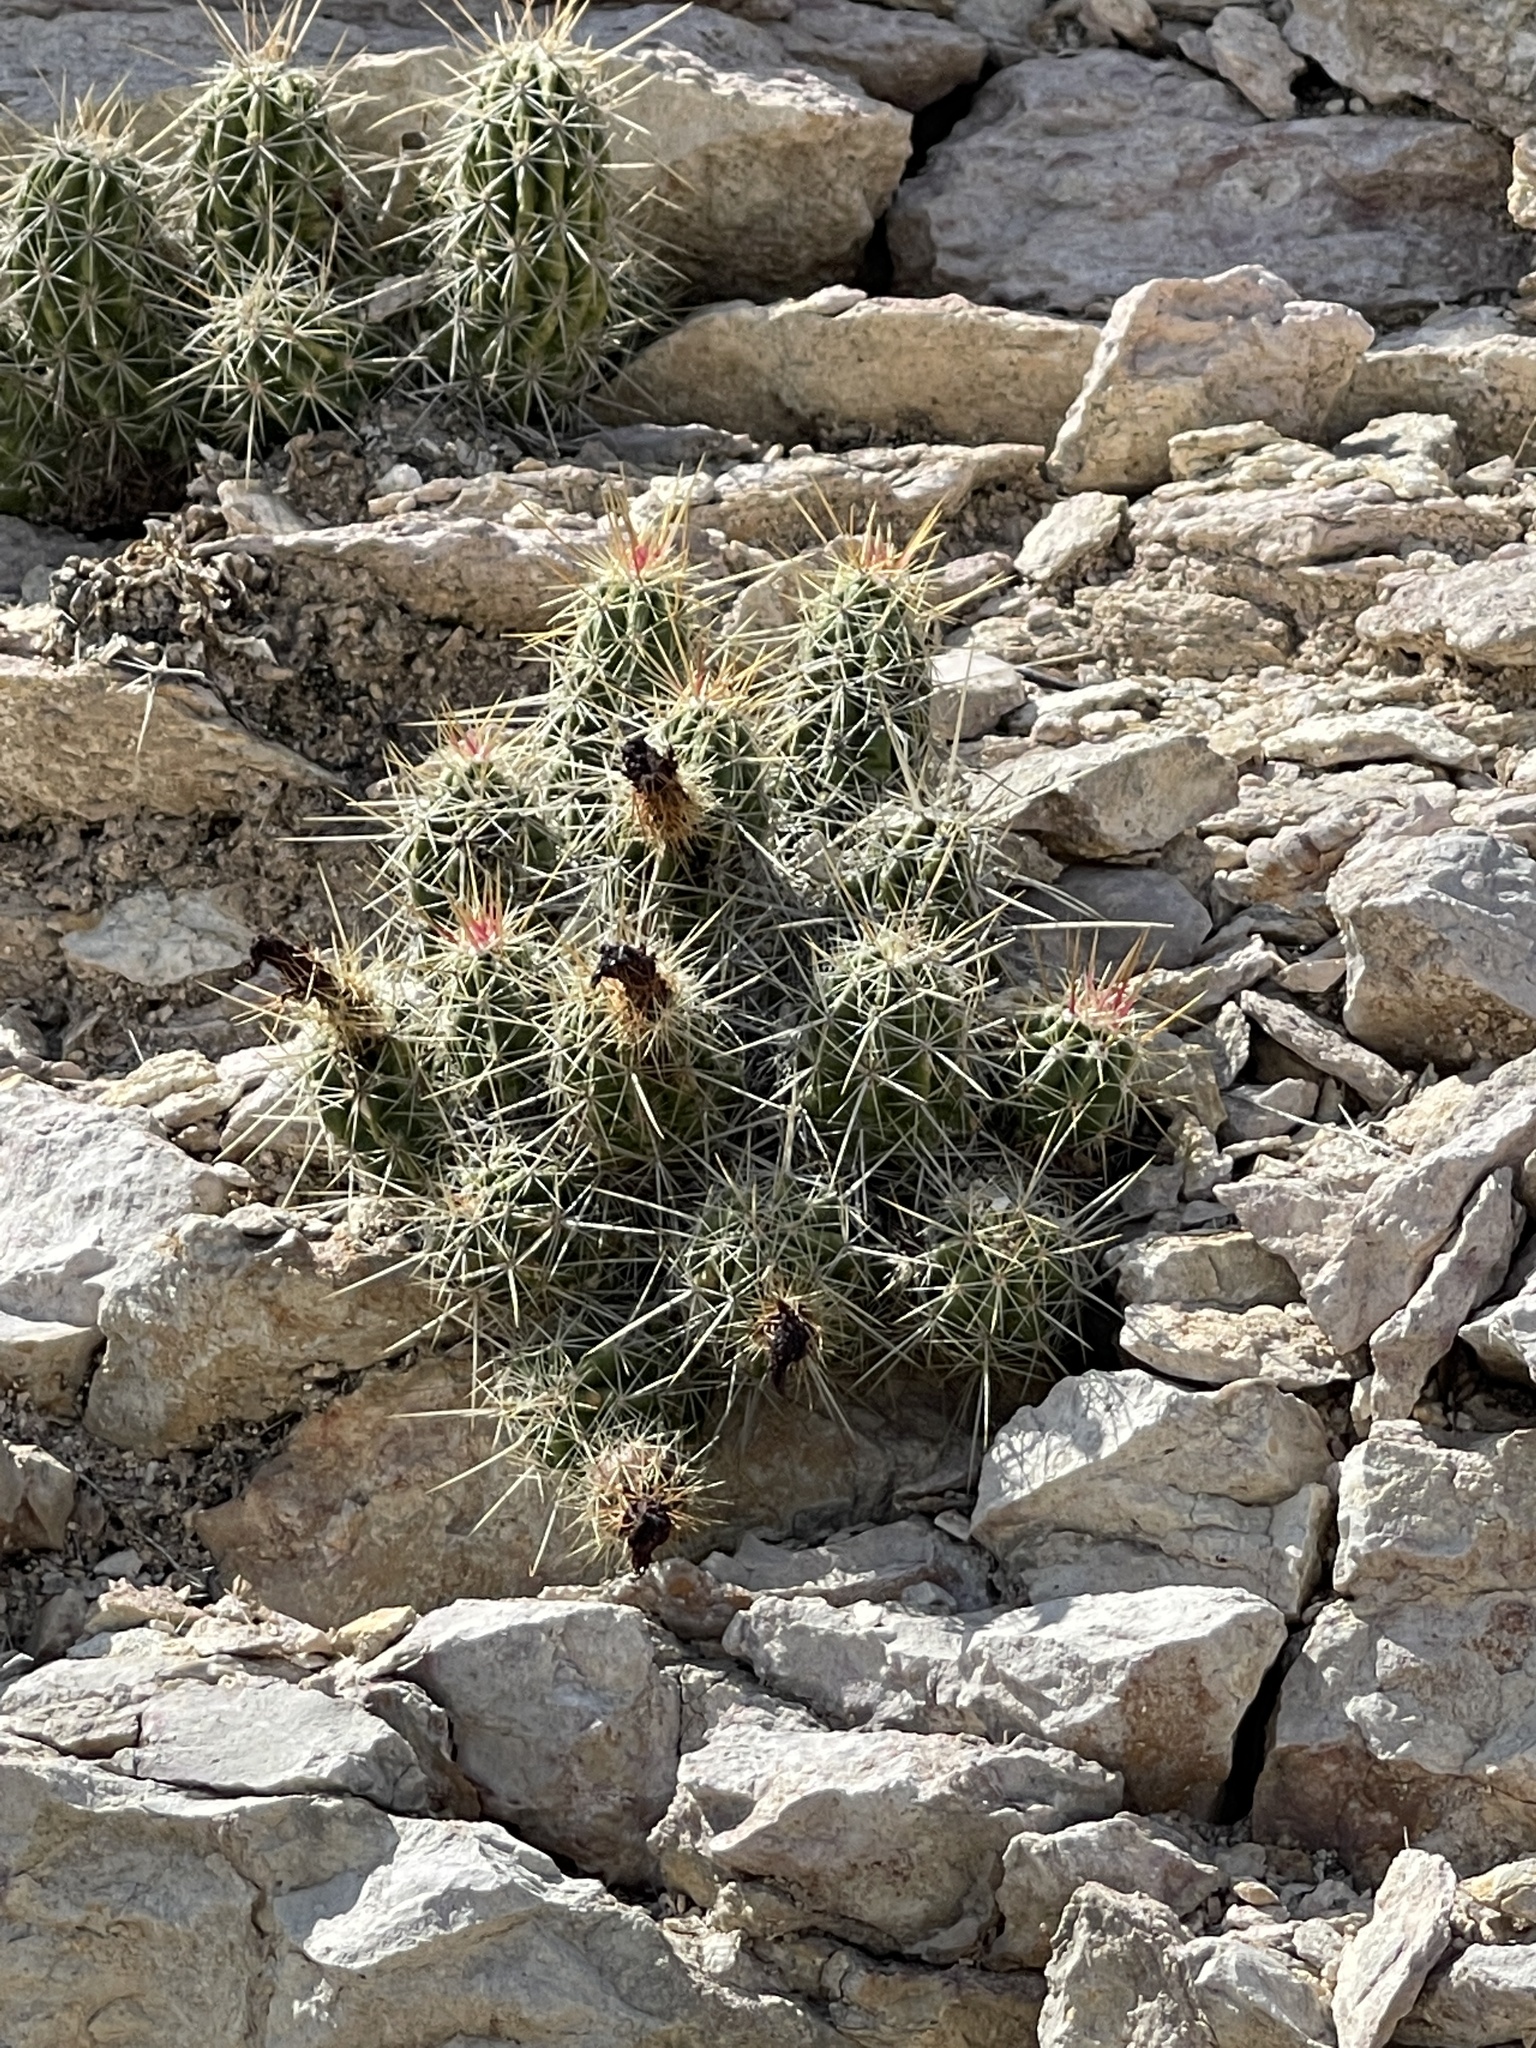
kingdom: Plantae
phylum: Tracheophyta
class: Magnoliopsida
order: Caryophyllales
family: Cactaceae
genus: Echinocereus
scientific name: Echinocereus enneacanthus
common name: Pitaya
